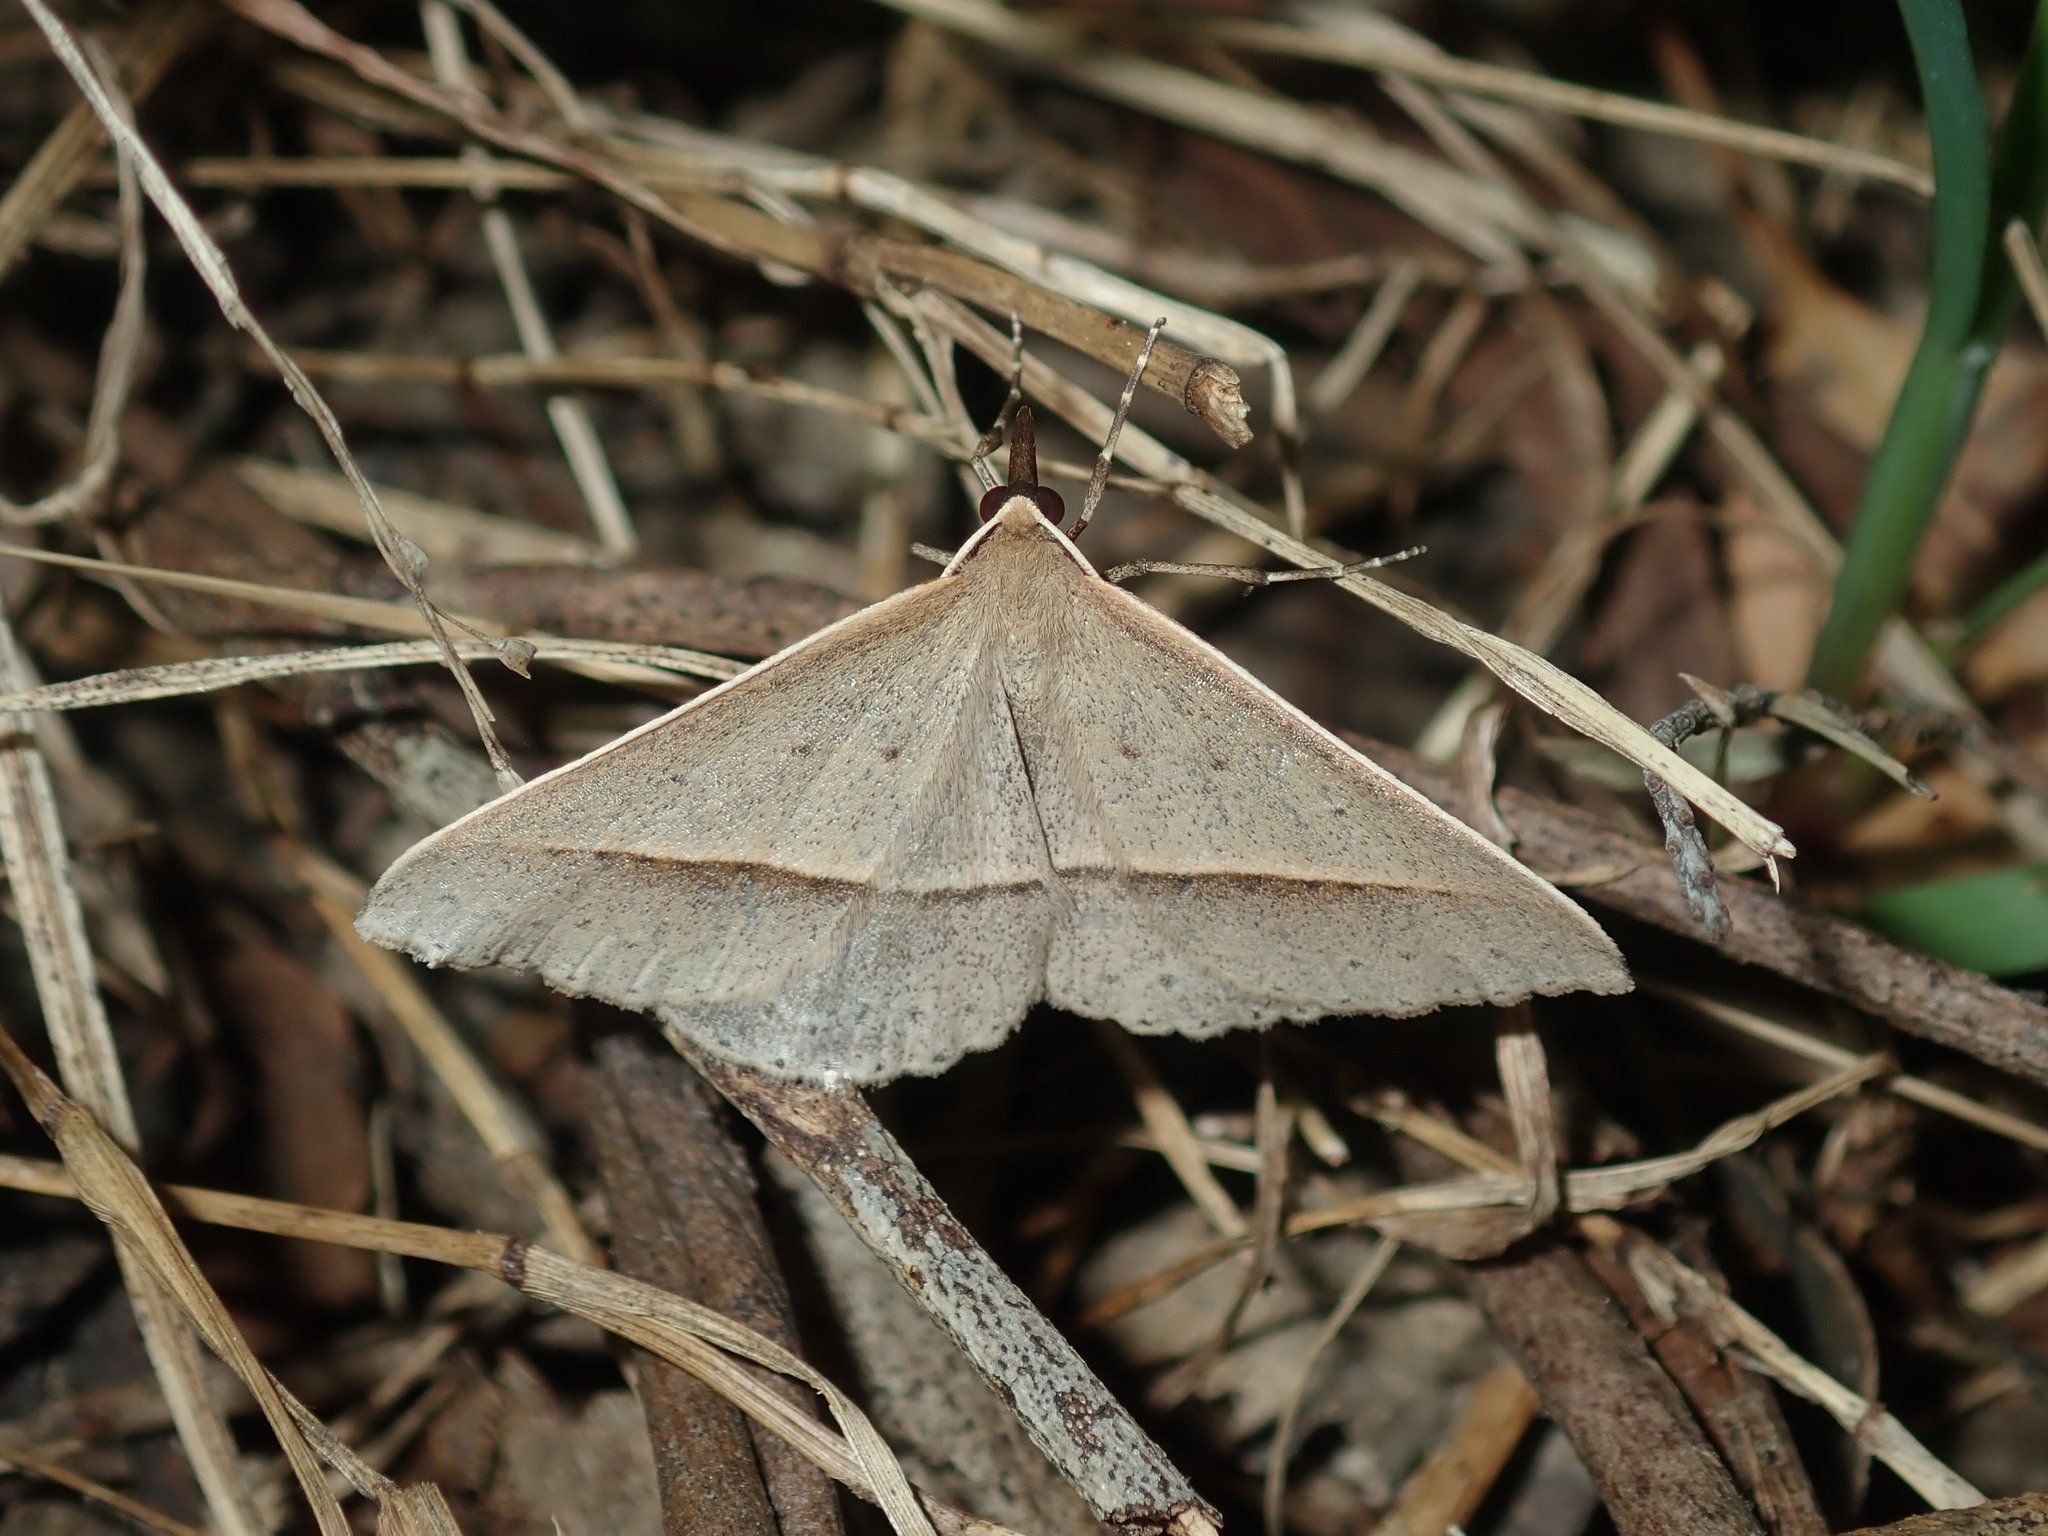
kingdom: Animalia
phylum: Arthropoda
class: Insecta
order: Lepidoptera
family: Geometridae
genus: Epidesmia
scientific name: Epidesmia tryxaria
